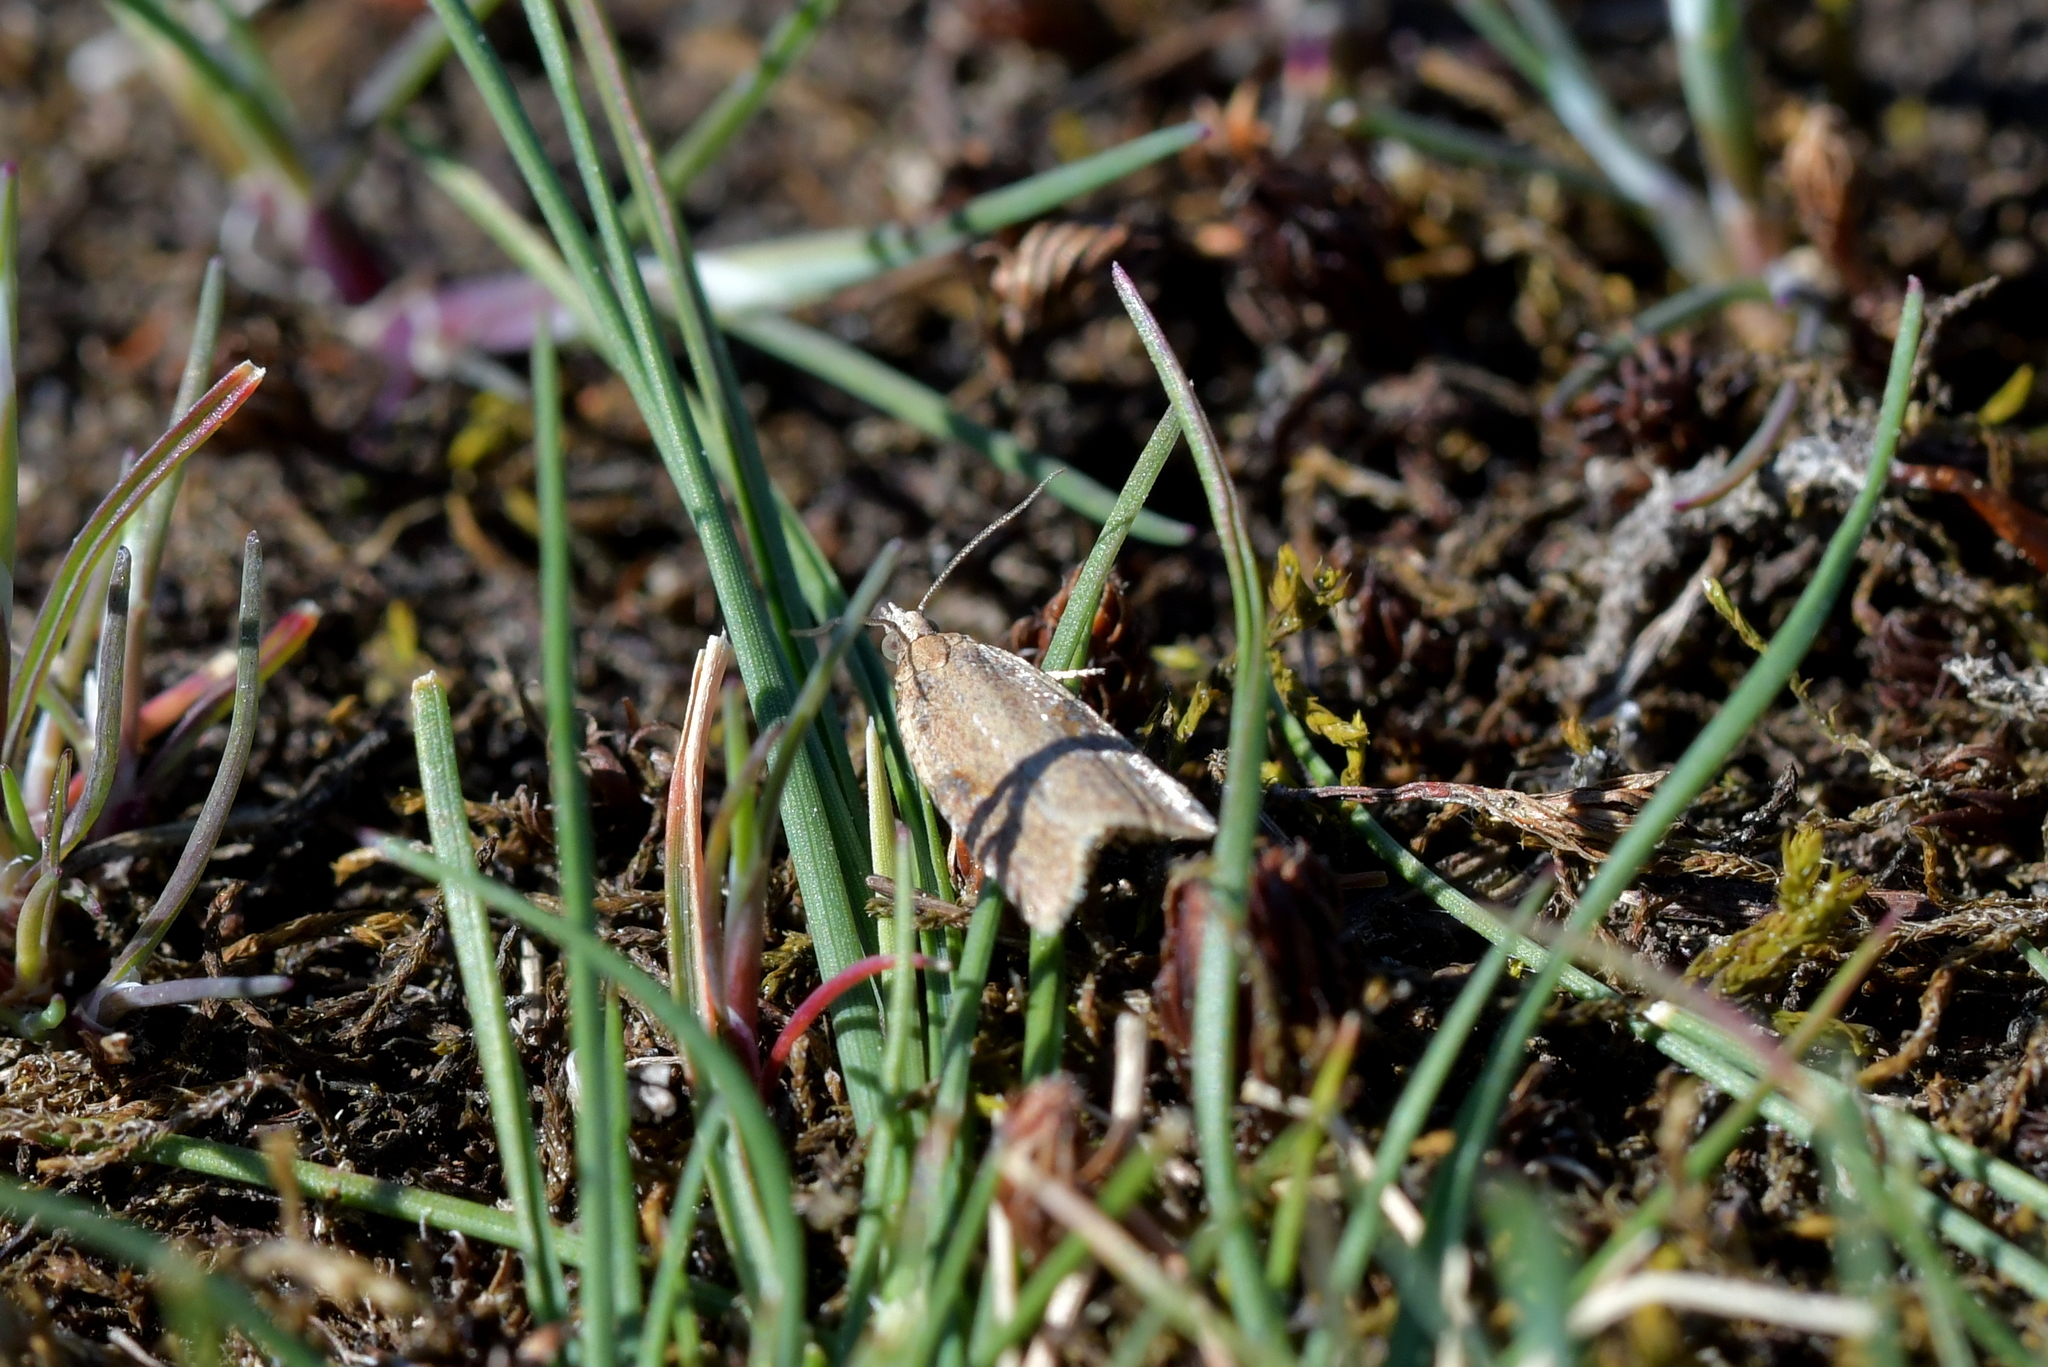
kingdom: Animalia
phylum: Arthropoda
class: Insecta
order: Lepidoptera
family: Tortricidae
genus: Capua
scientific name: Capua semiferana
